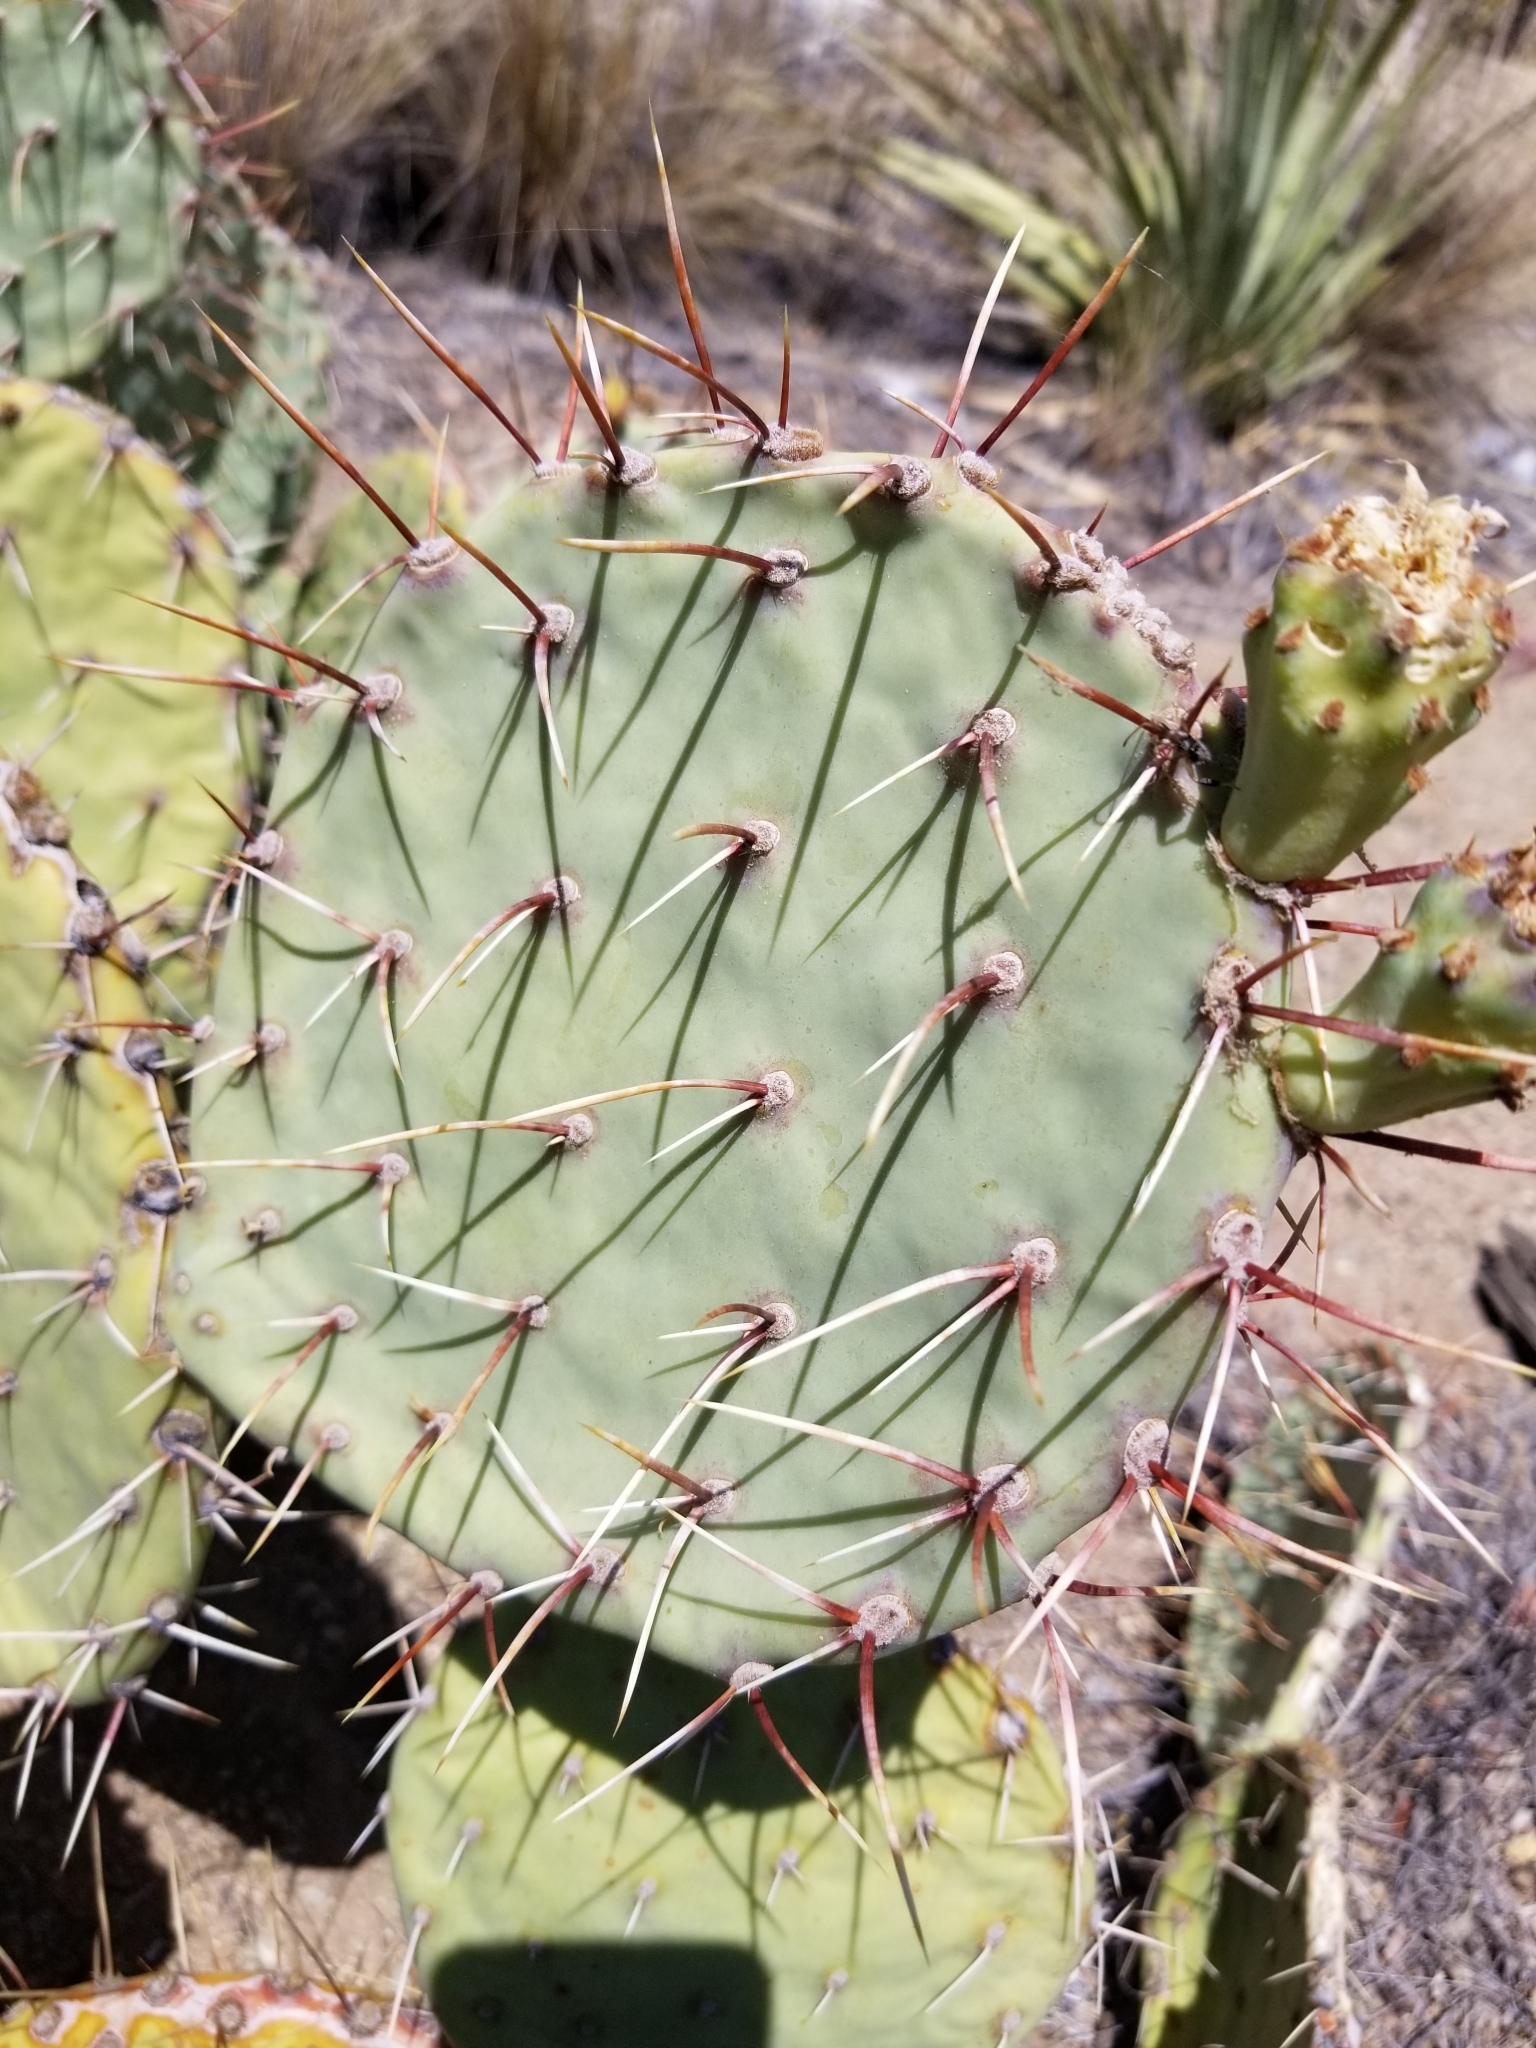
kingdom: Plantae
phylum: Tracheophyta
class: Magnoliopsida
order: Caryophyllales
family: Cactaceae
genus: Opuntia
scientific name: Opuntia phaeacantha
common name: New mexico prickly-pear
